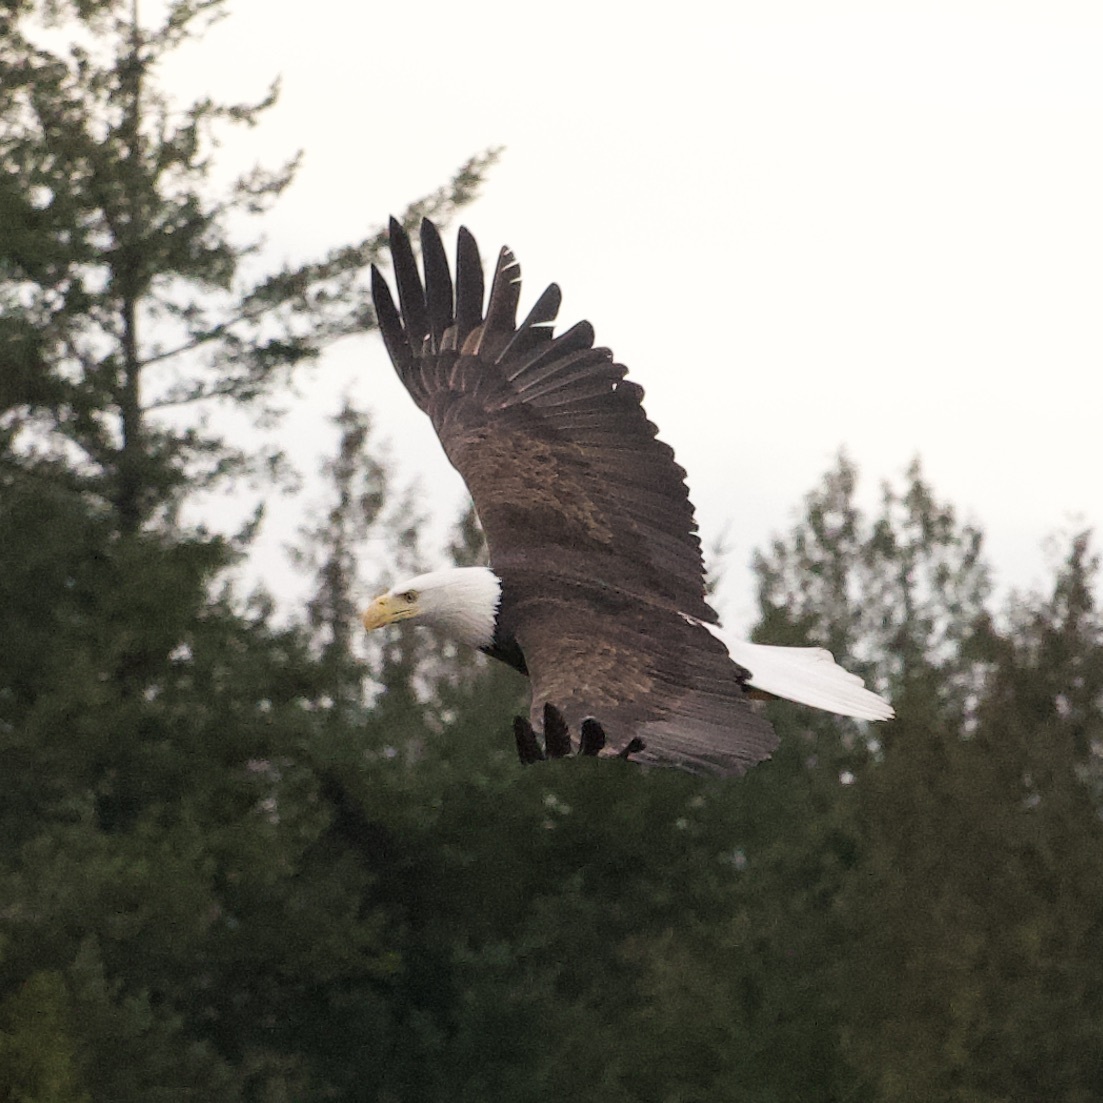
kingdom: Animalia
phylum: Chordata
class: Aves
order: Accipitriformes
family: Accipitridae
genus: Haliaeetus
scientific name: Haliaeetus leucocephalus
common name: Bald eagle
